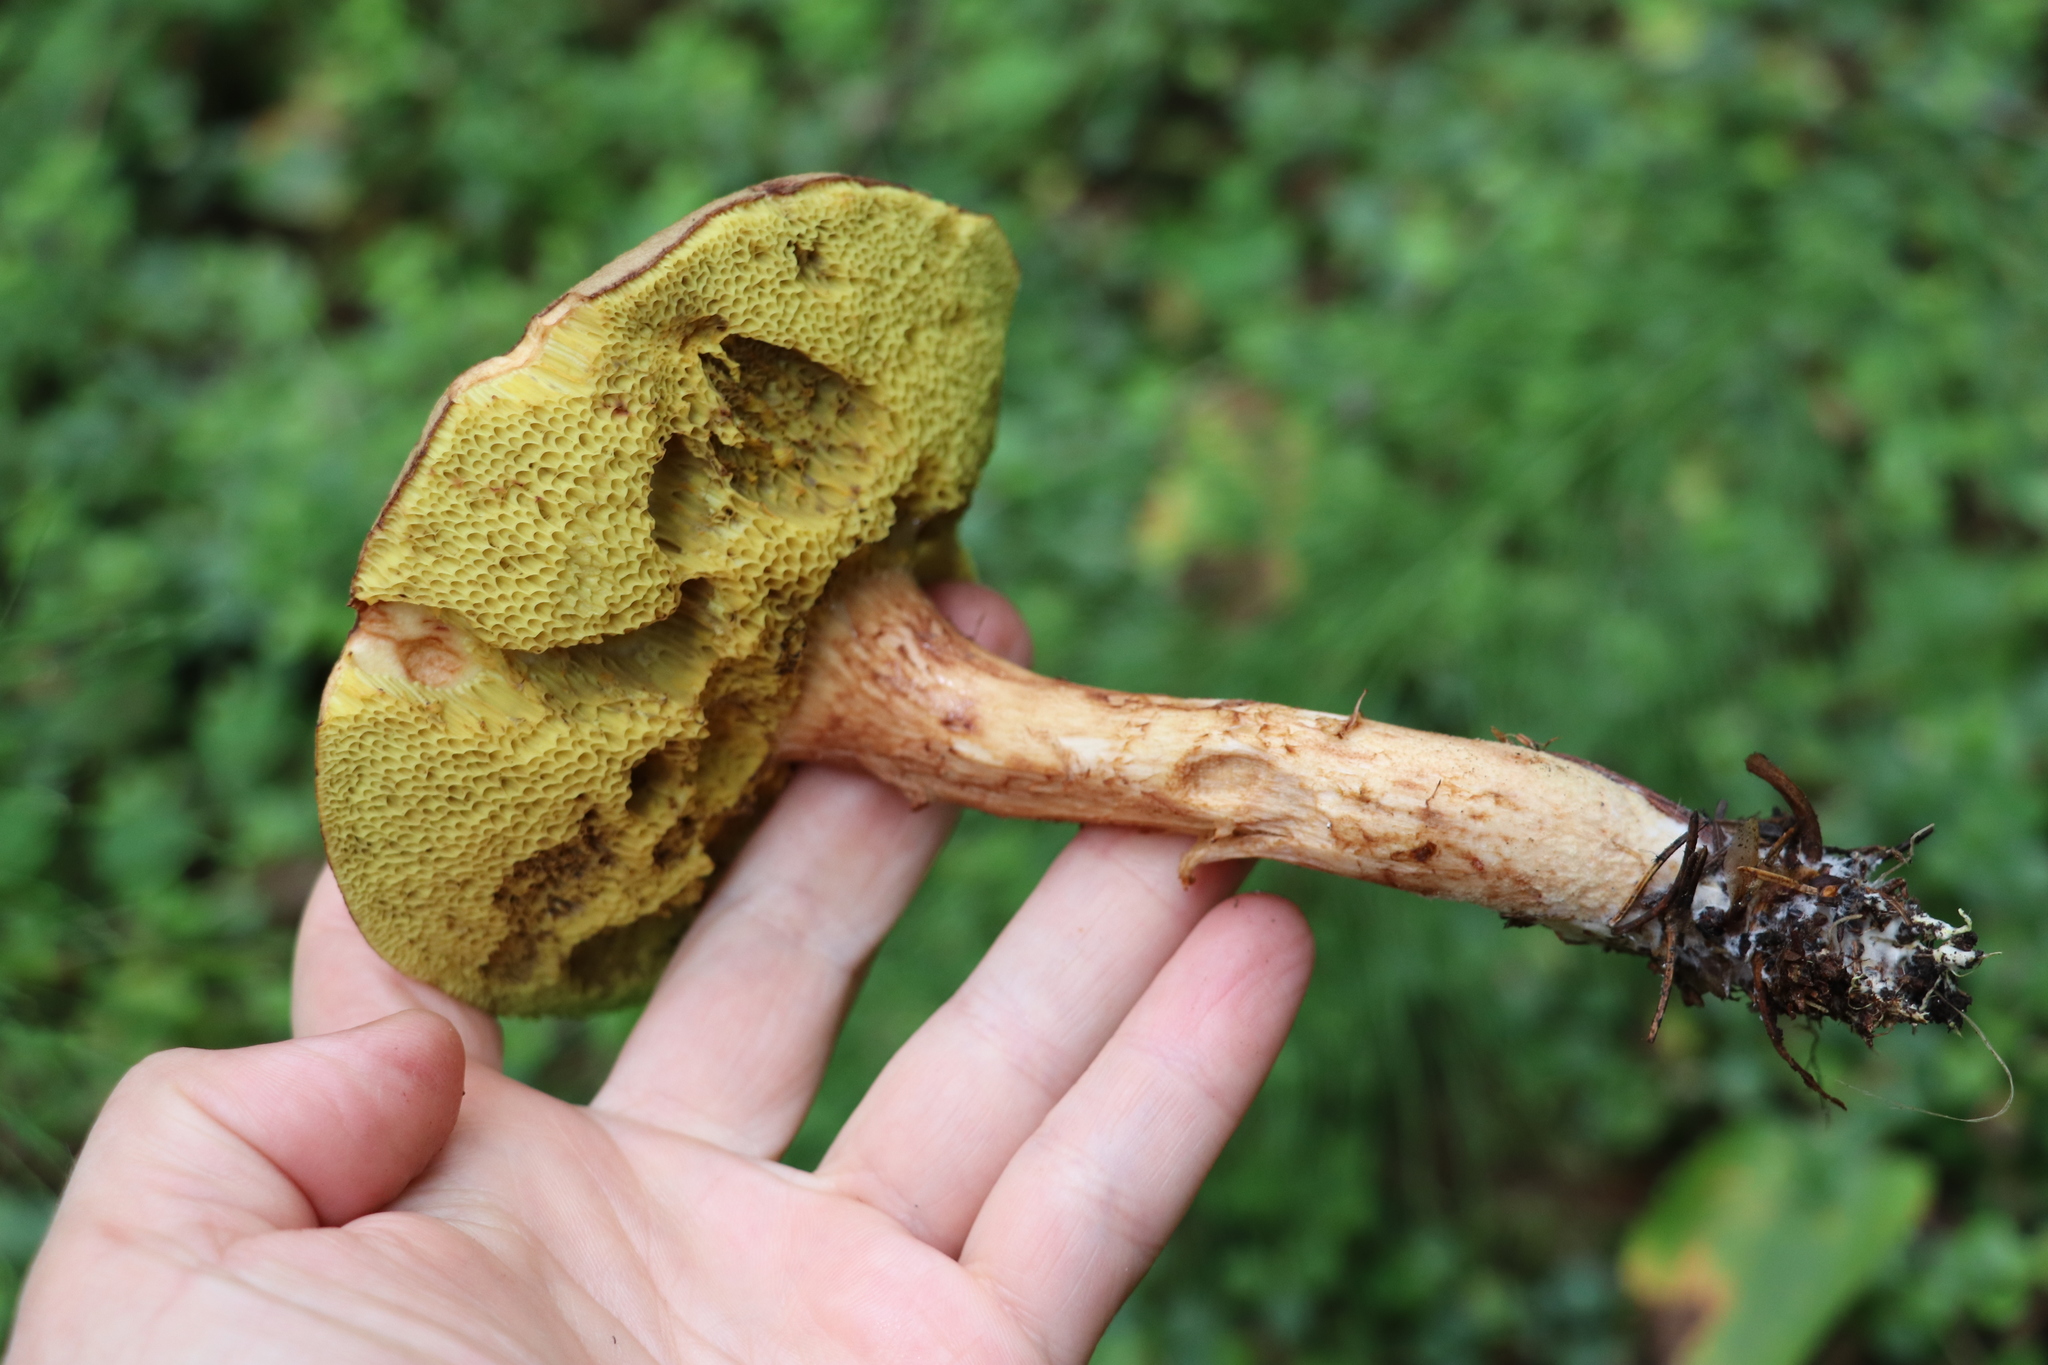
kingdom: Fungi
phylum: Basidiomycota
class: Agaricomycetes
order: Boletales
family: Boletaceae
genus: Xerocomus
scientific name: Xerocomus subtomentosus
